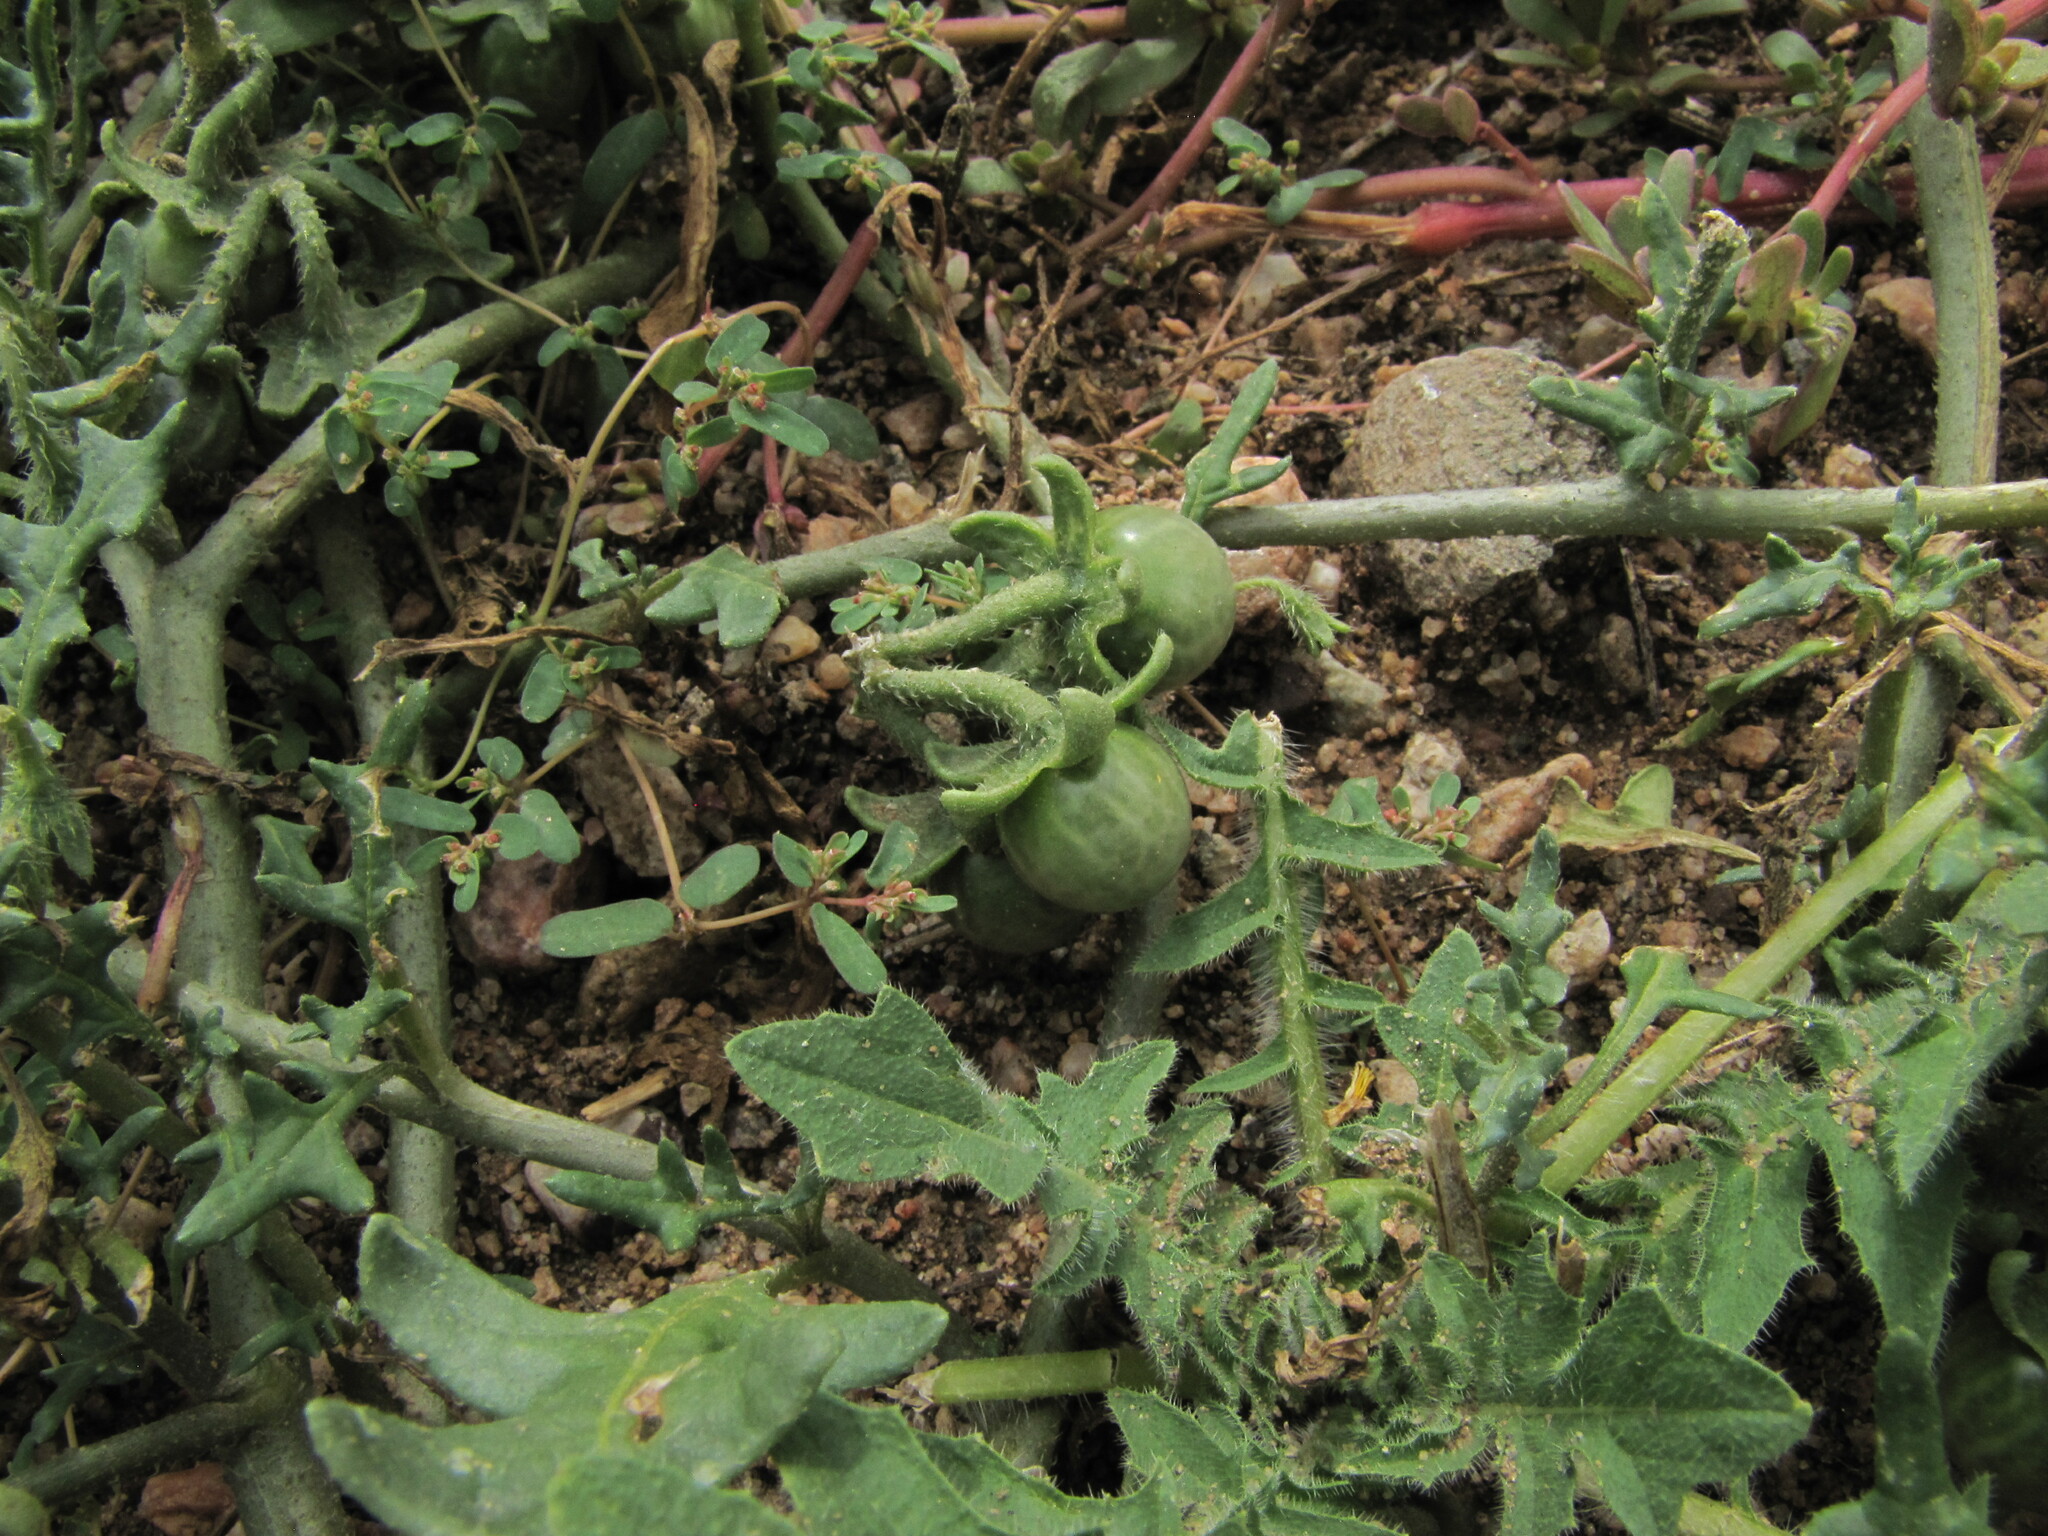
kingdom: Plantae
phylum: Tracheophyta
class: Magnoliopsida
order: Solanales
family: Solanaceae
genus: Solanum
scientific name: Solanum triflorum
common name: Small nightshade
